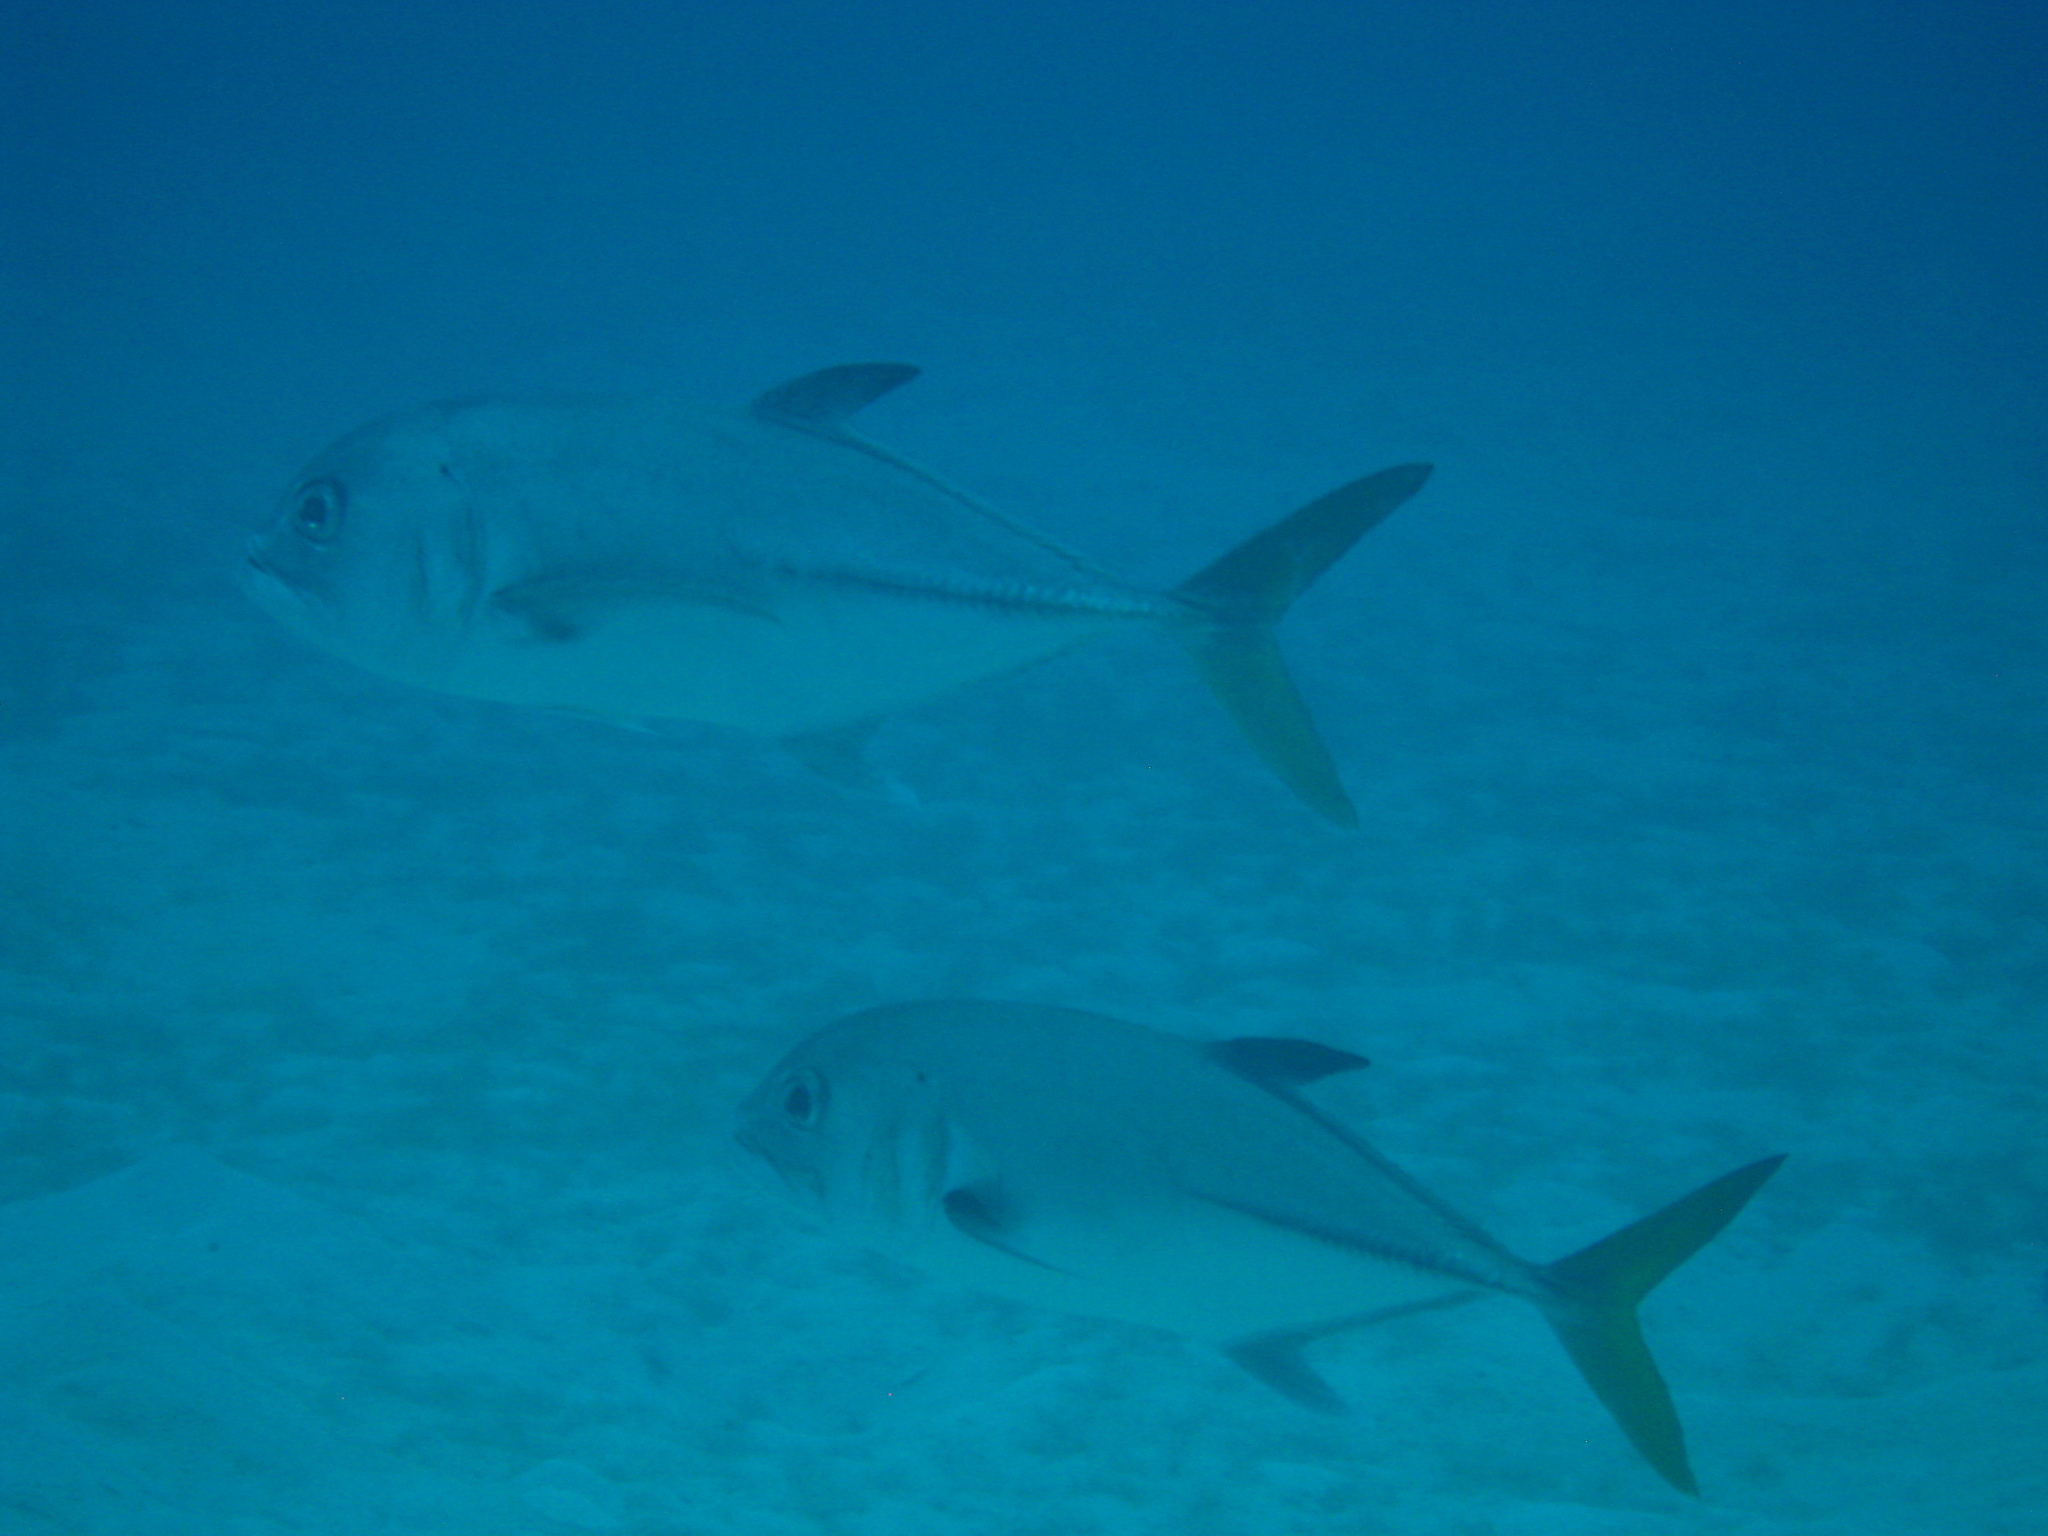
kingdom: Animalia
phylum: Chordata
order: Perciformes
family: Carangidae
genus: Caranx
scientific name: Caranx latus
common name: Horse eye jack
